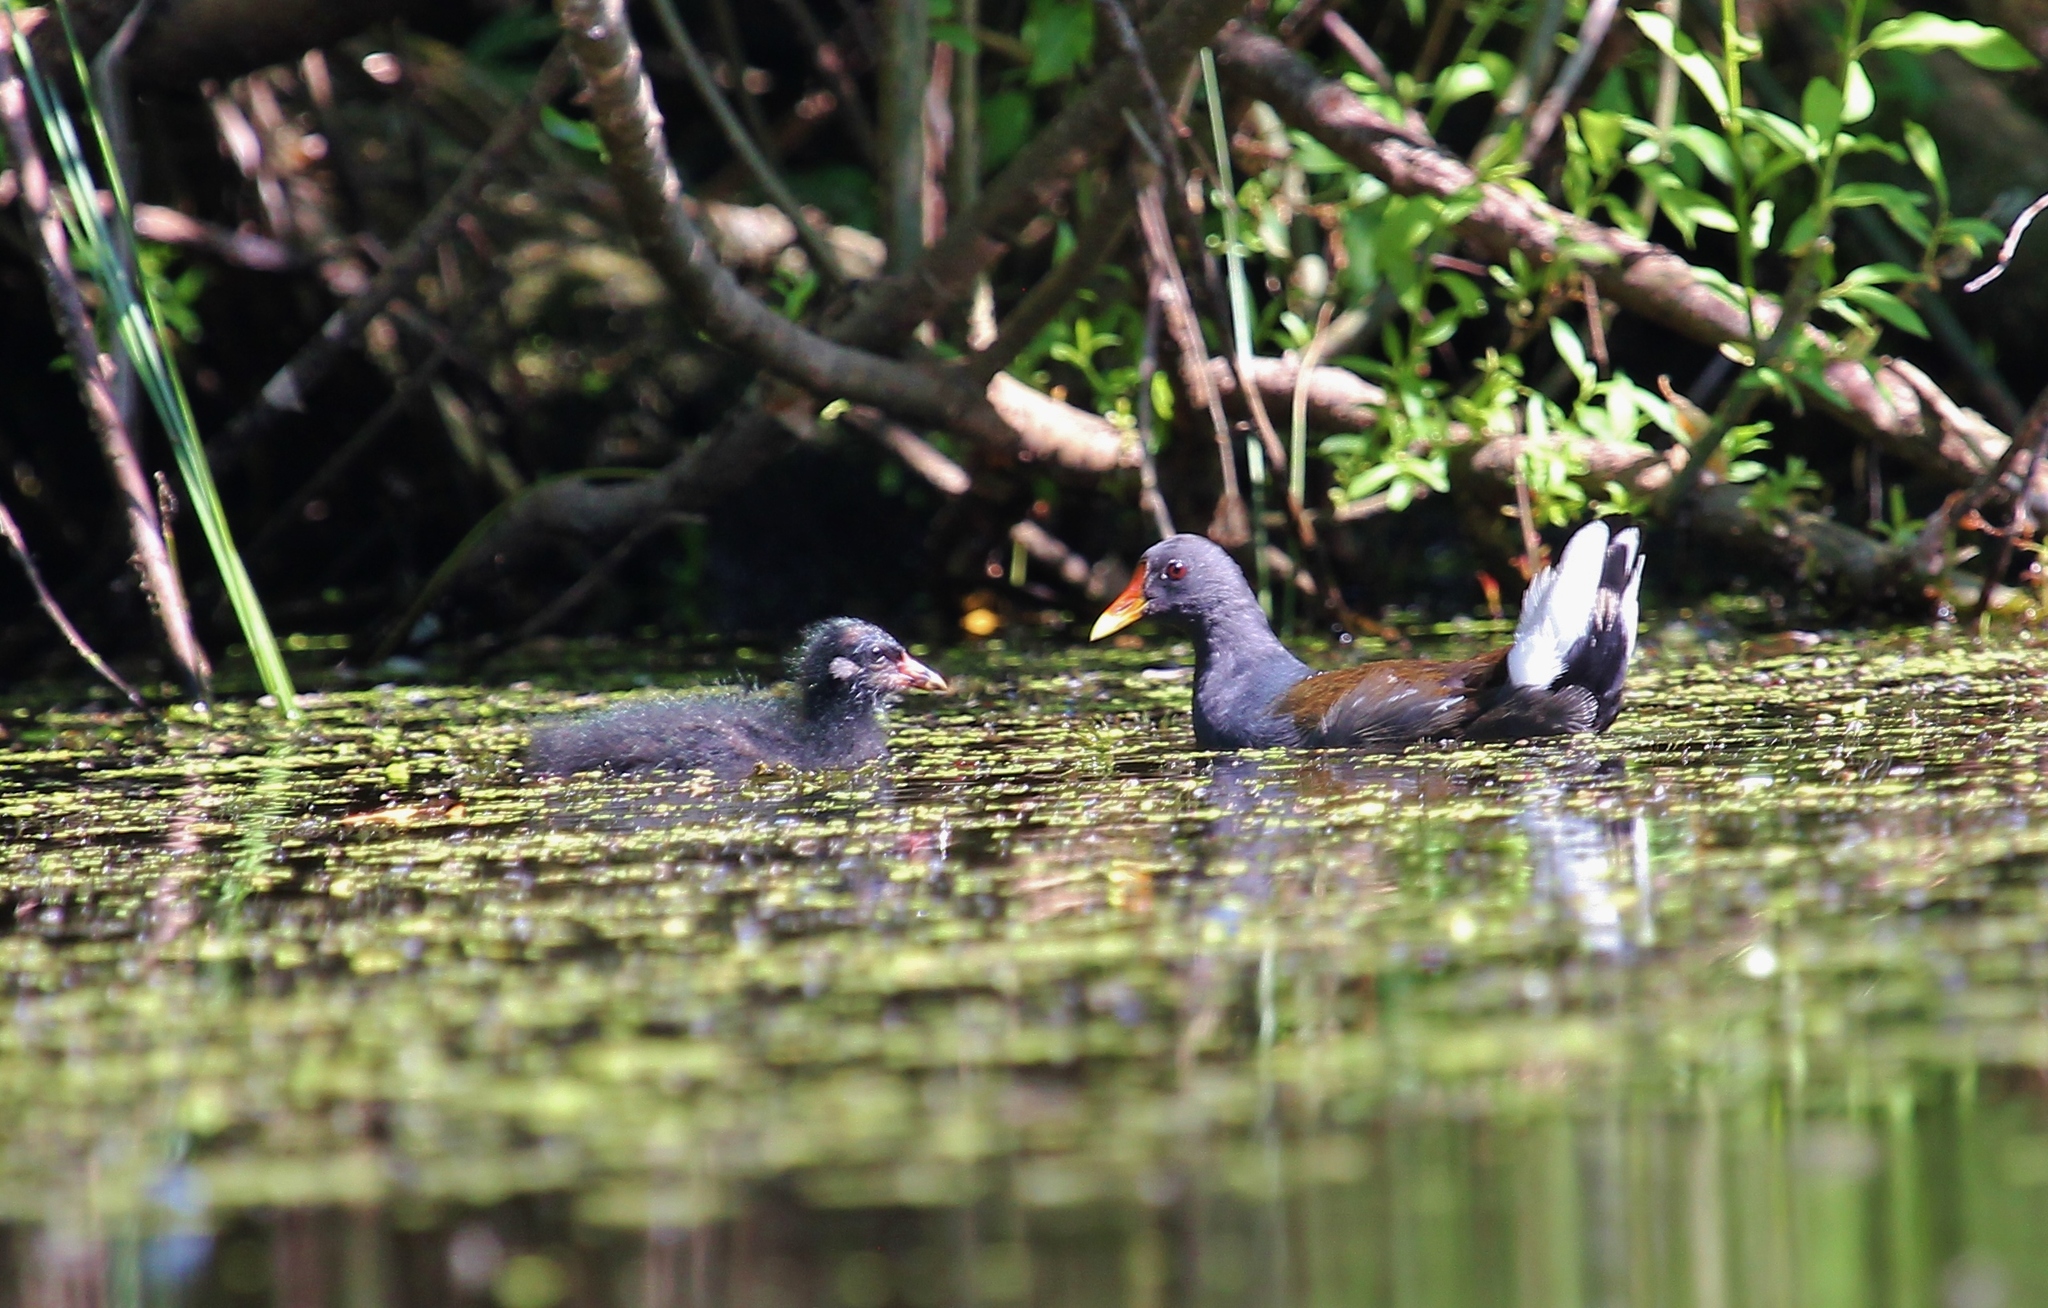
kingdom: Animalia
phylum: Chordata
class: Aves
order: Gruiformes
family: Rallidae
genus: Gallinula
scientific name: Gallinula chloropus
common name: Common moorhen
